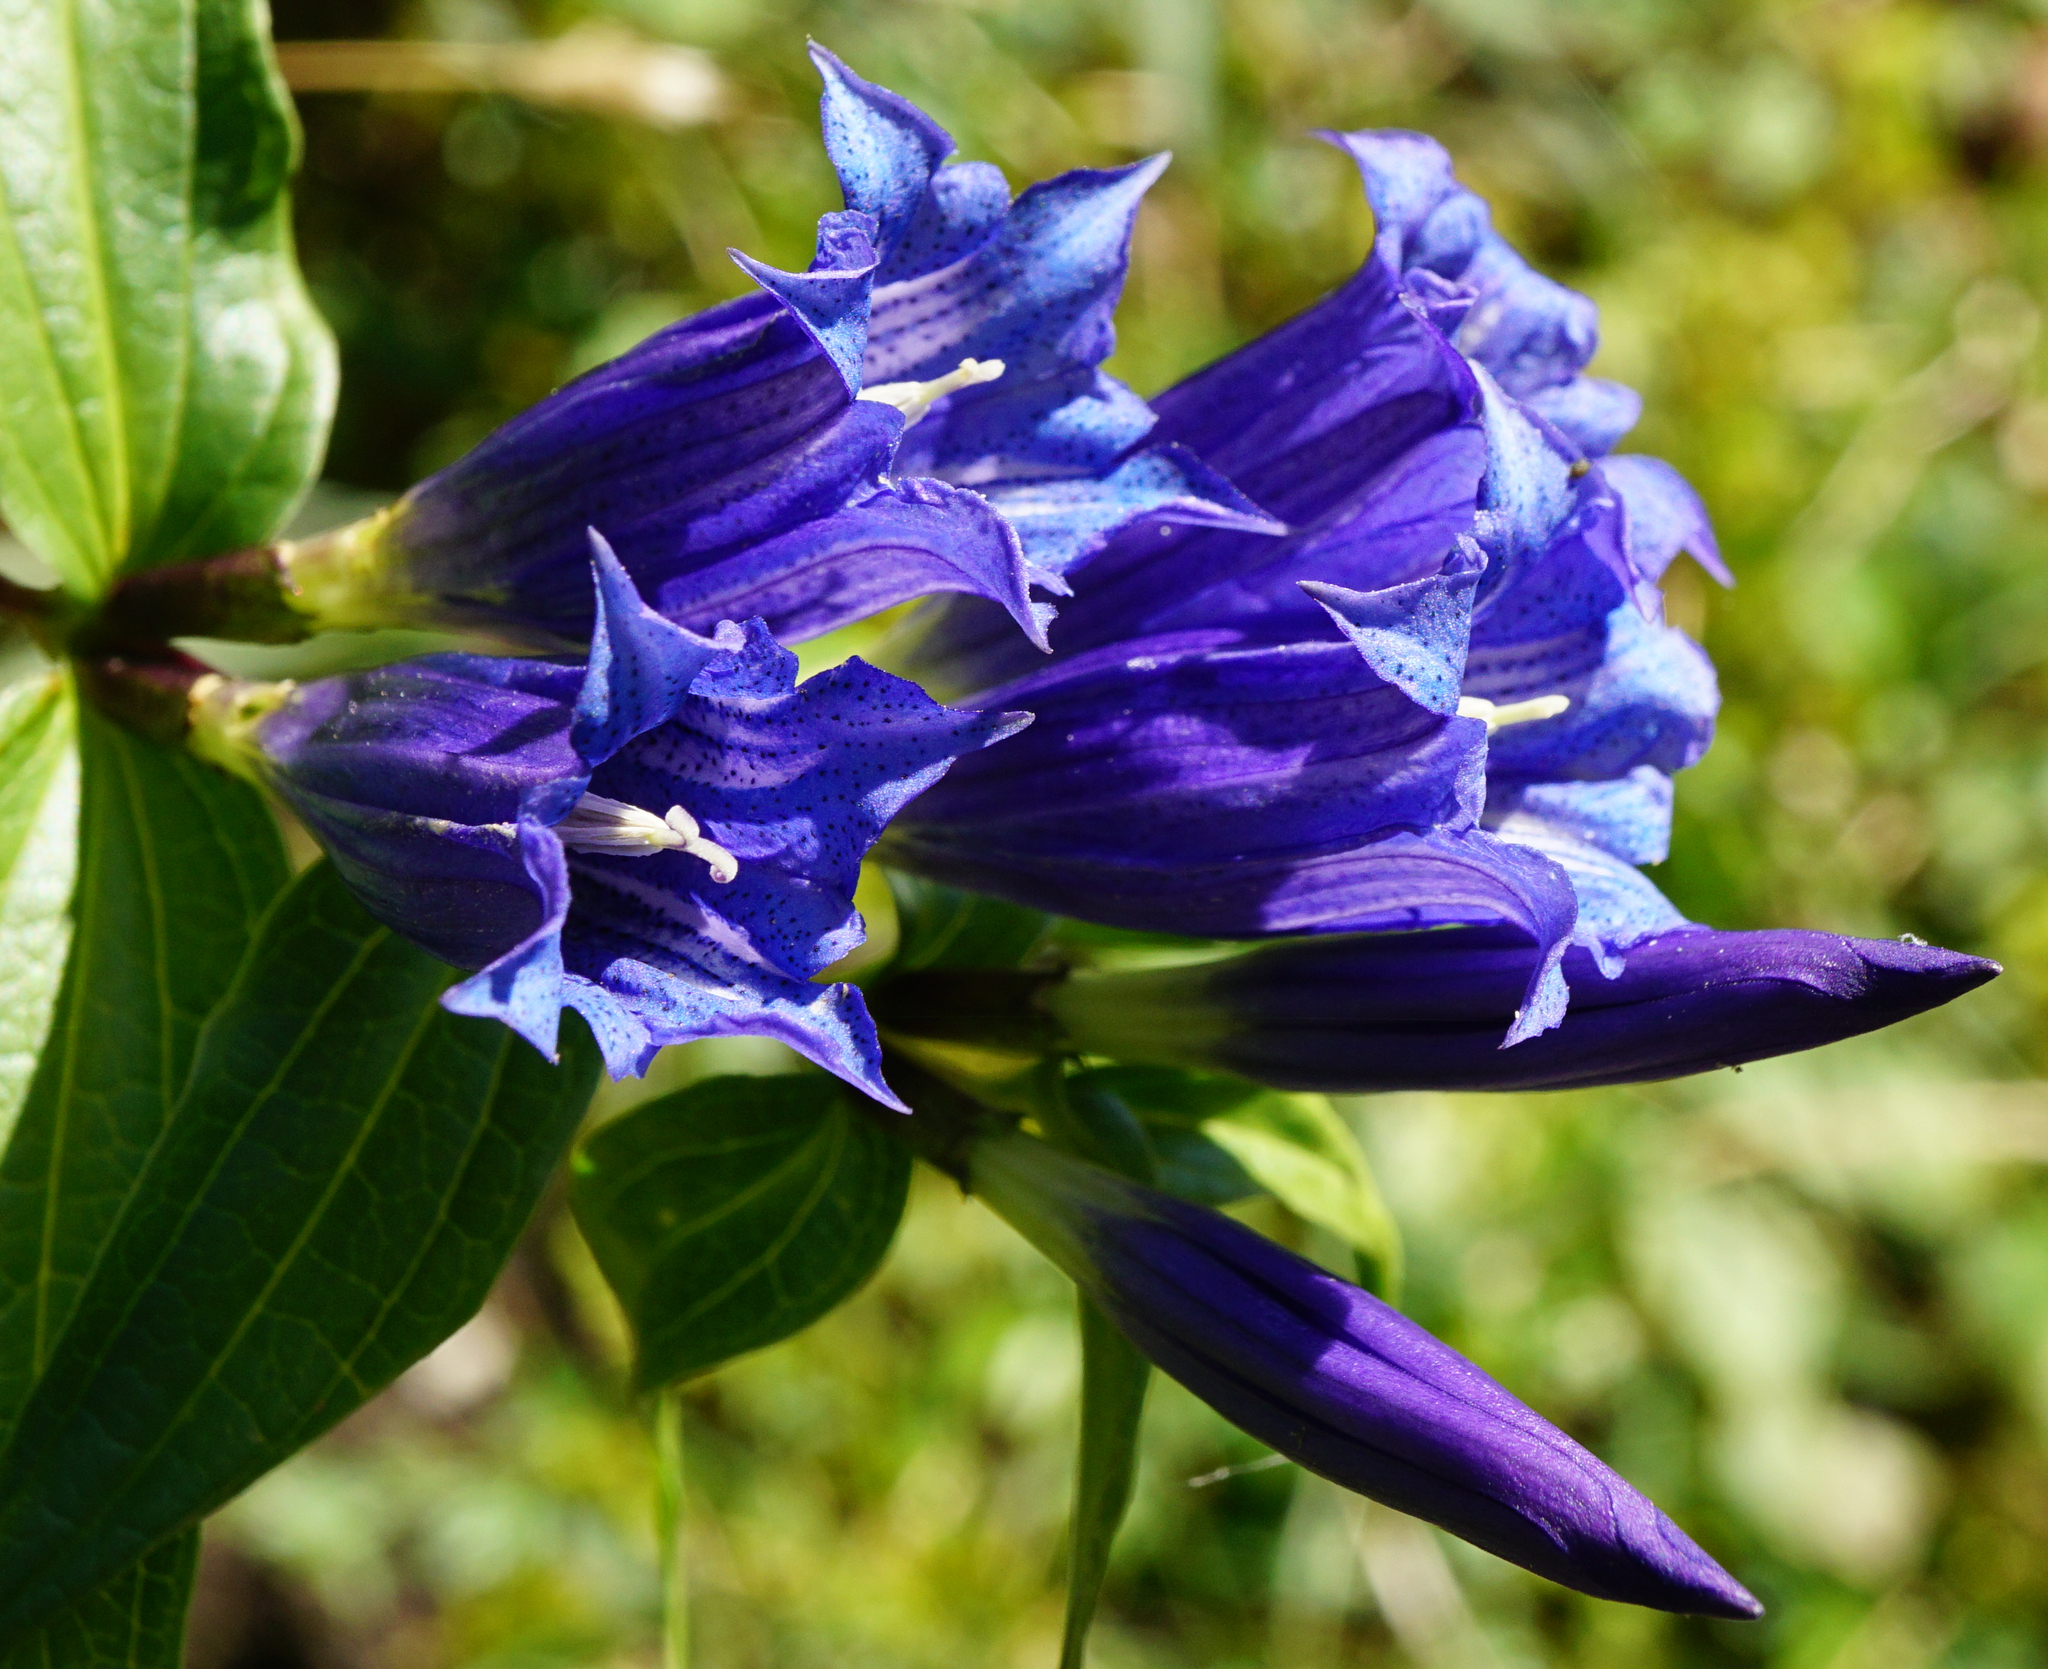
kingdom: Plantae
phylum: Tracheophyta
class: Magnoliopsida
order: Gentianales
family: Gentianaceae
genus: Gentiana
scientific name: Gentiana asclepiadea
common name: Willow gentian
